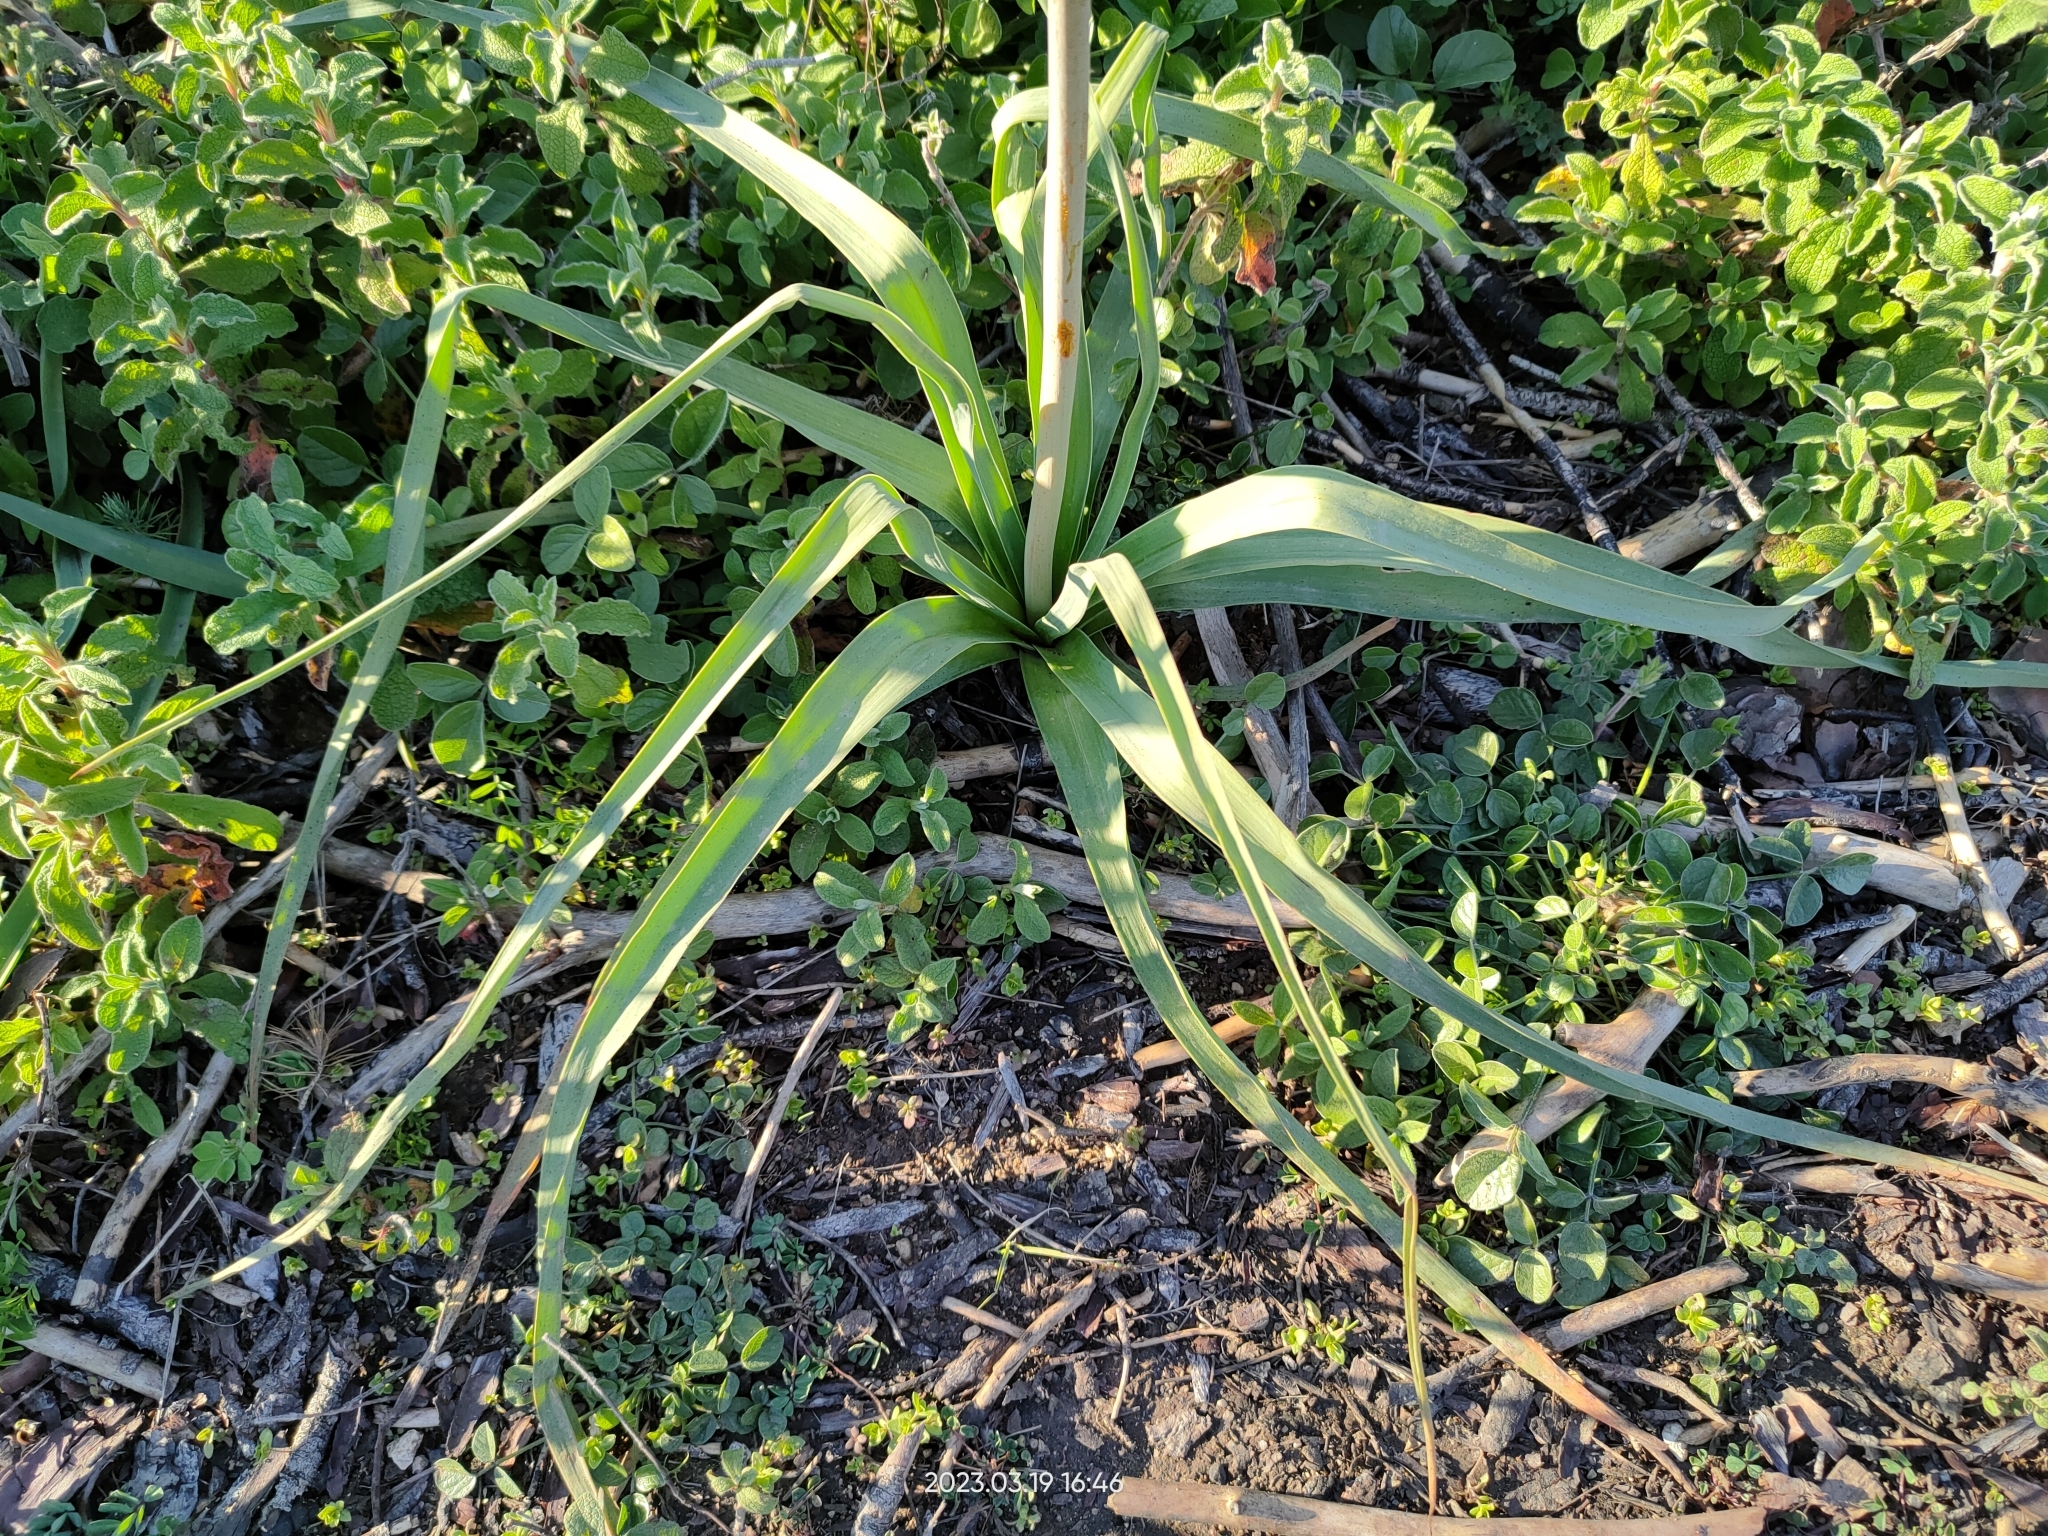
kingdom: Plantae
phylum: Tracheophyta
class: Liliopsida
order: Asparagales
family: Asphodelaceae
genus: Asphodelus
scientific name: Asphodelus ramosus
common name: Silverrod
